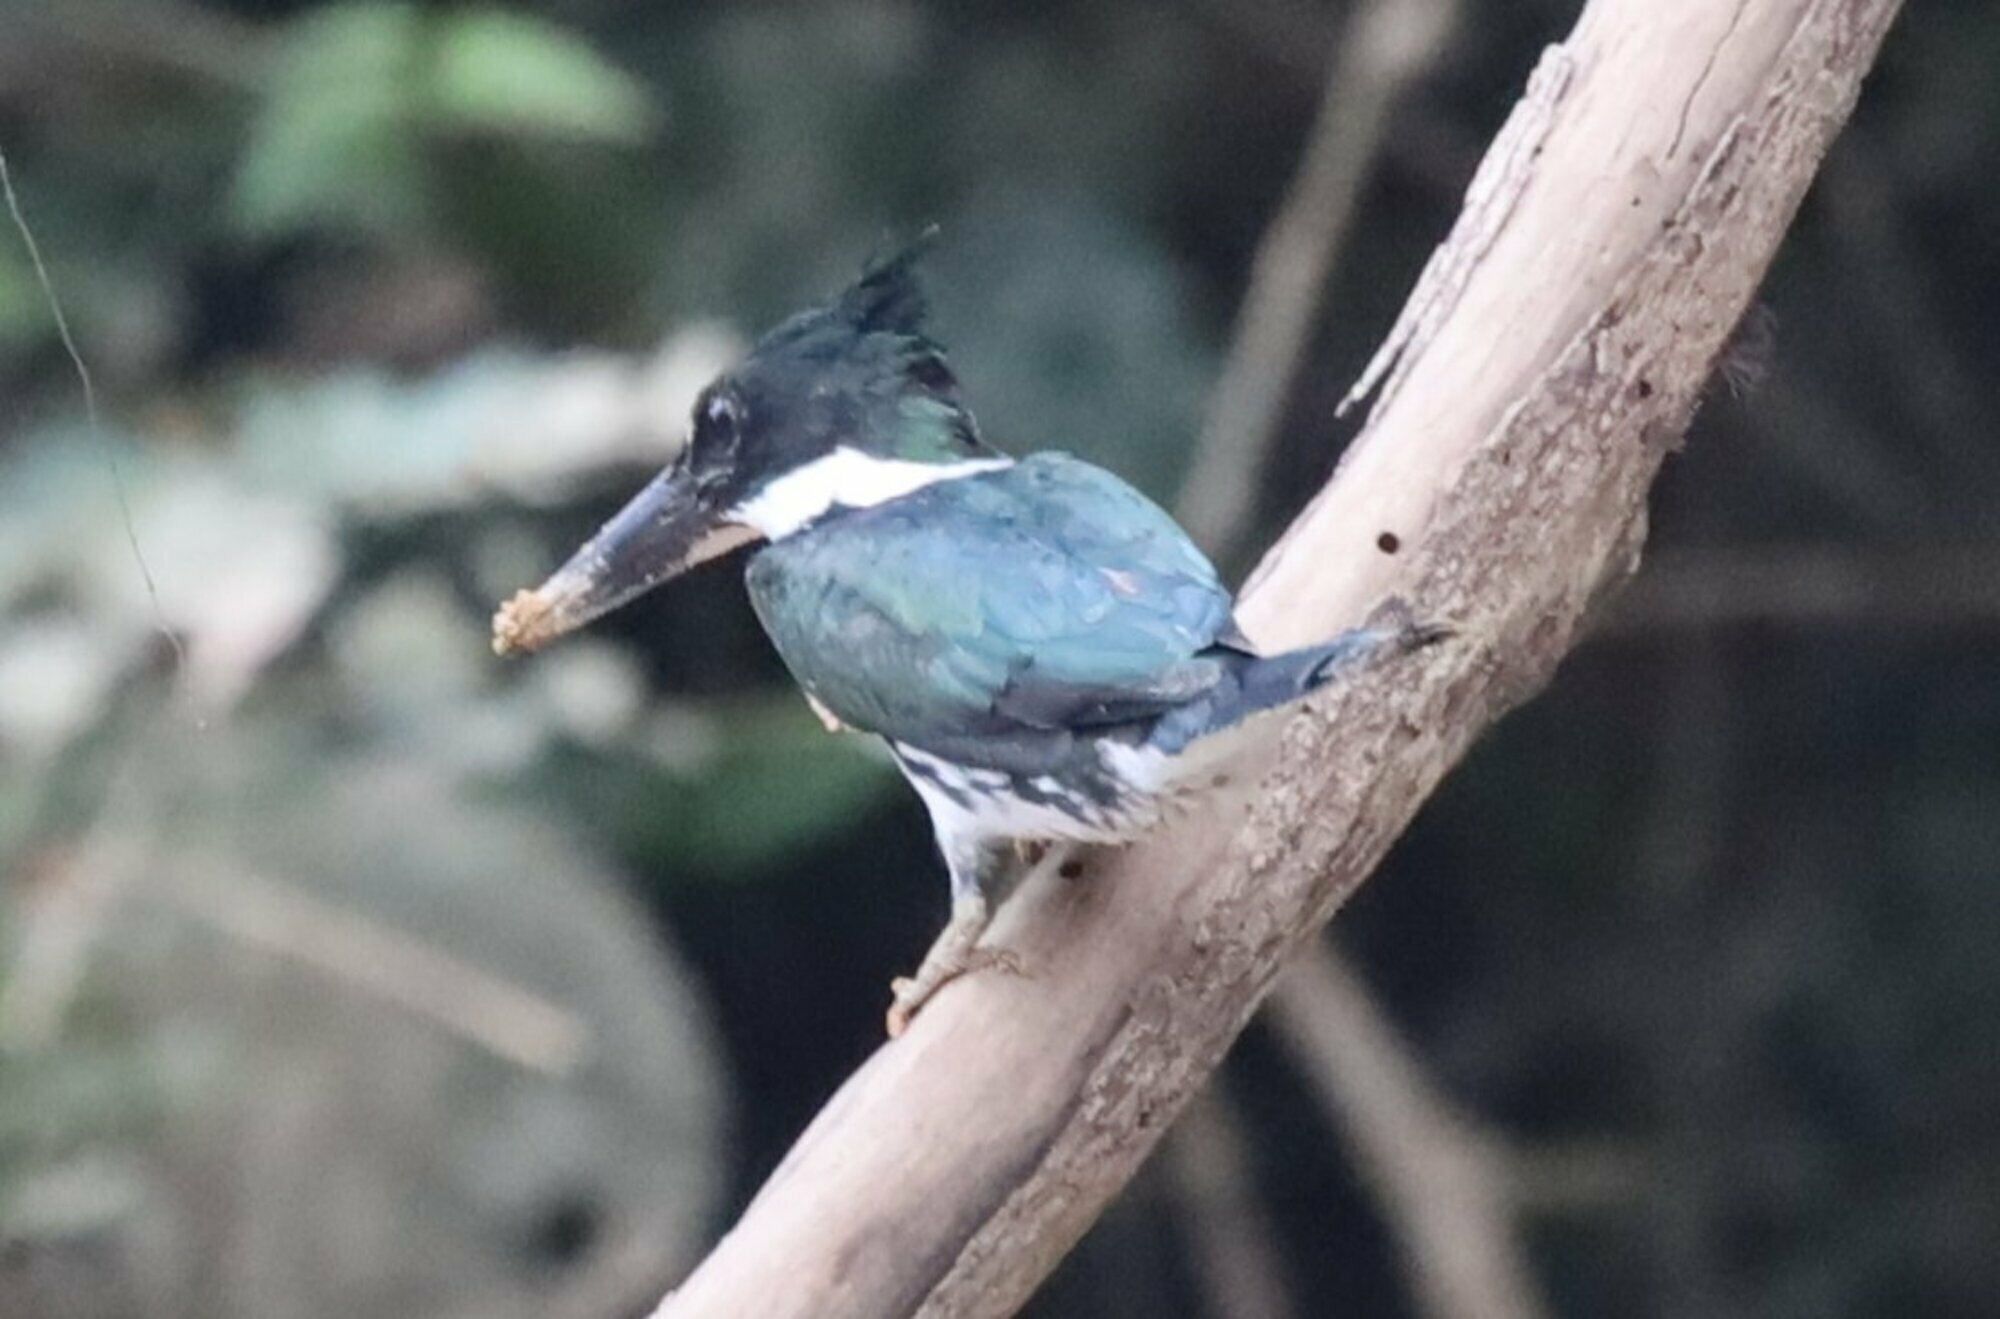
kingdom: Animalia
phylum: Chordata
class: Aves
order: Coraciiformes
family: Alcedinidae
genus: Chloroceryle
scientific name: Chloroceryle amazona
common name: Amazon kingfisher
